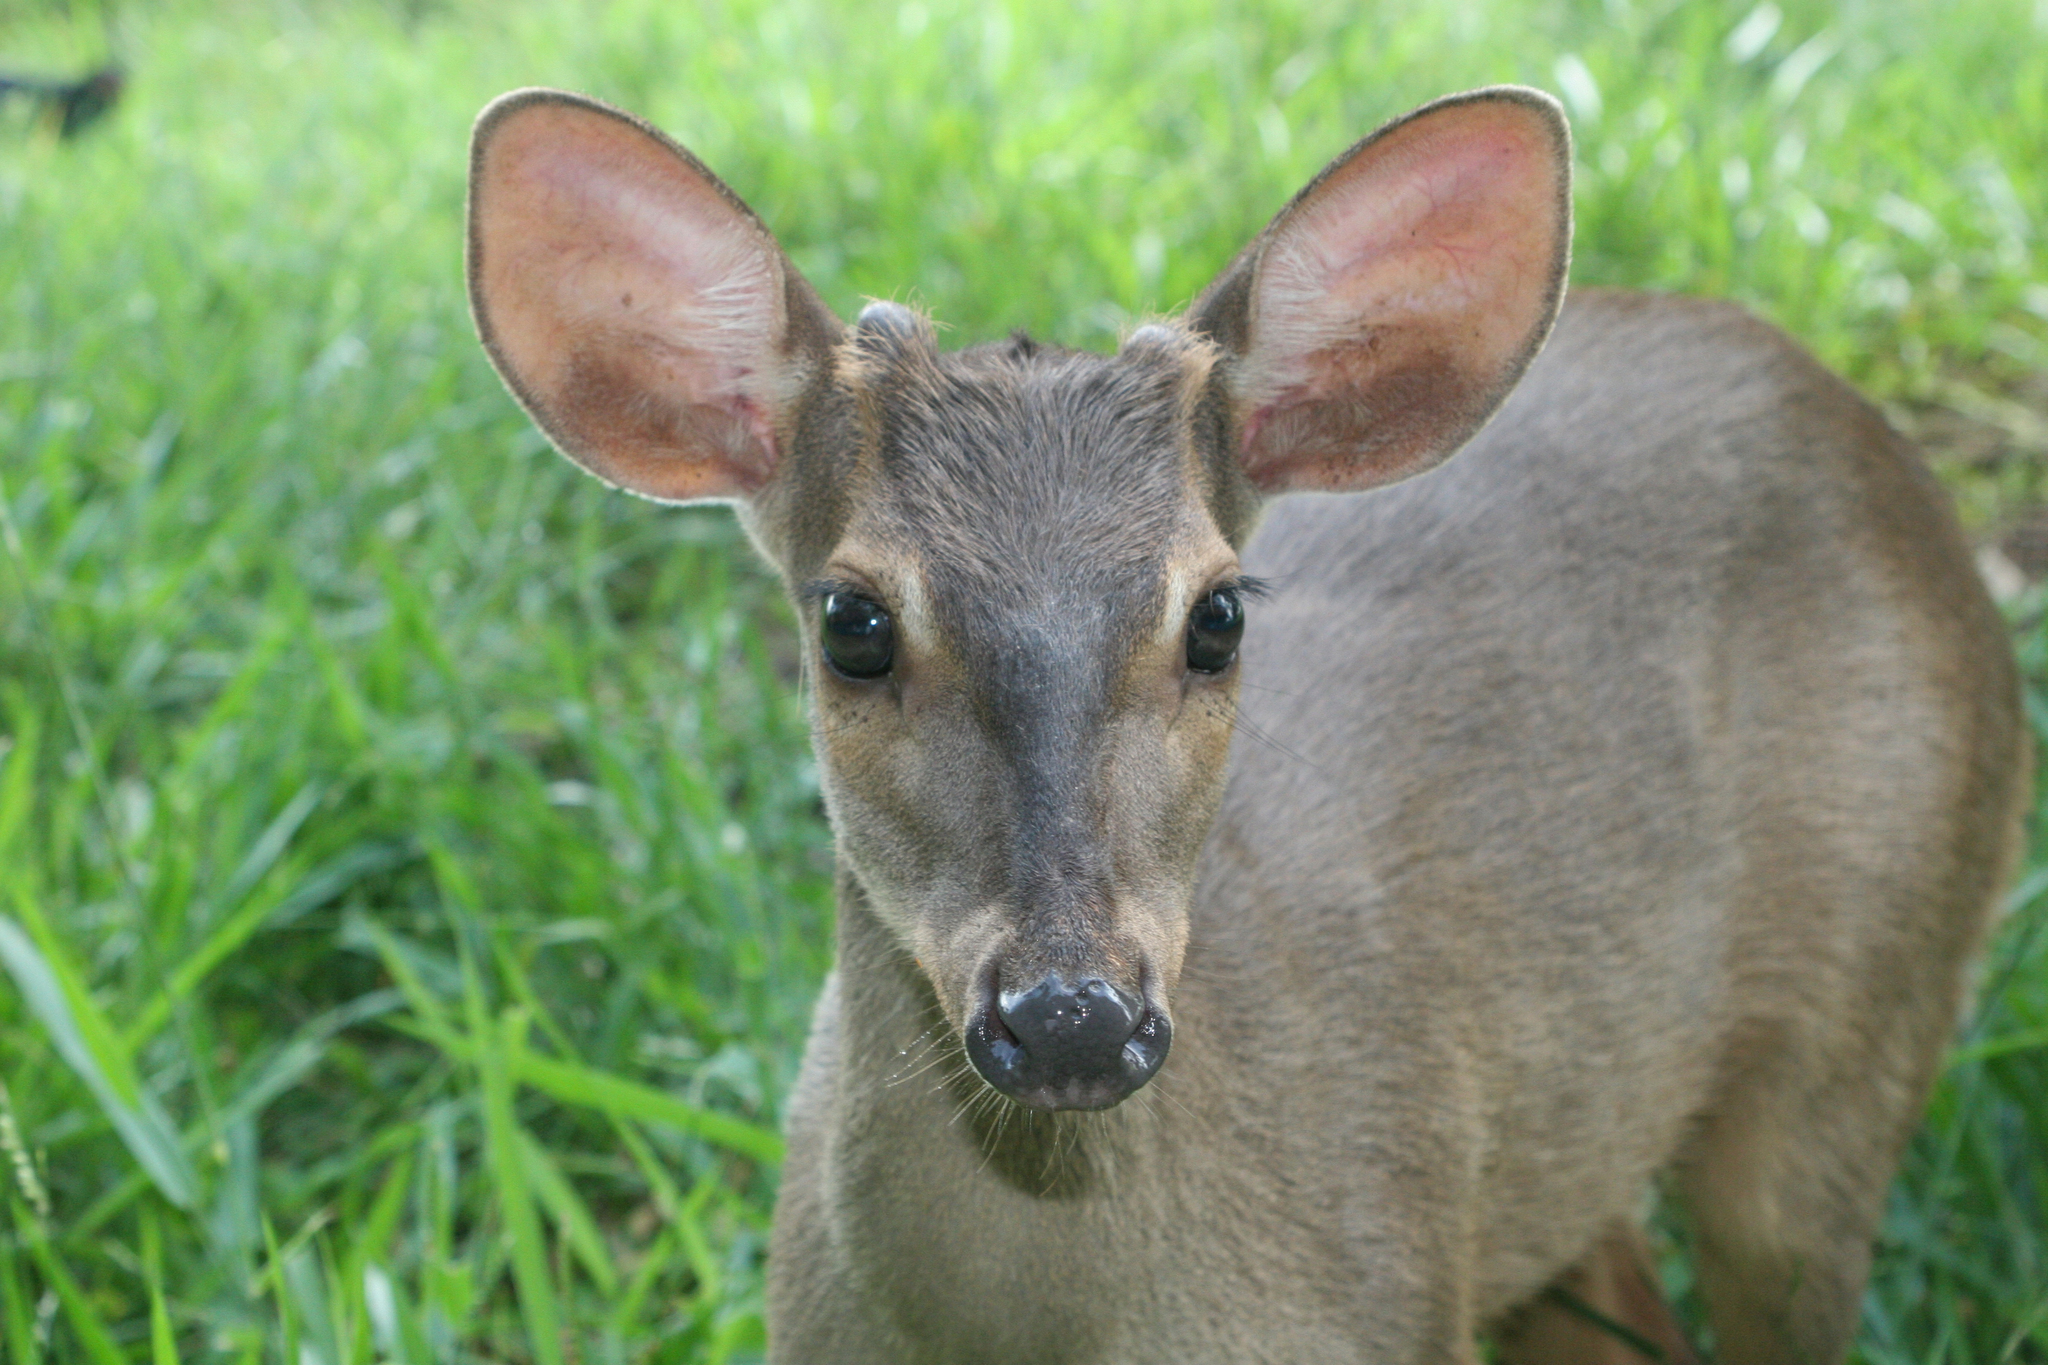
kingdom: Animalia
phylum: Chordata
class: Mammalia
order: Artiodactyla
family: Cervidae
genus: Mazama
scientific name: Mazama gouazoubira
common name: Gray brocket
